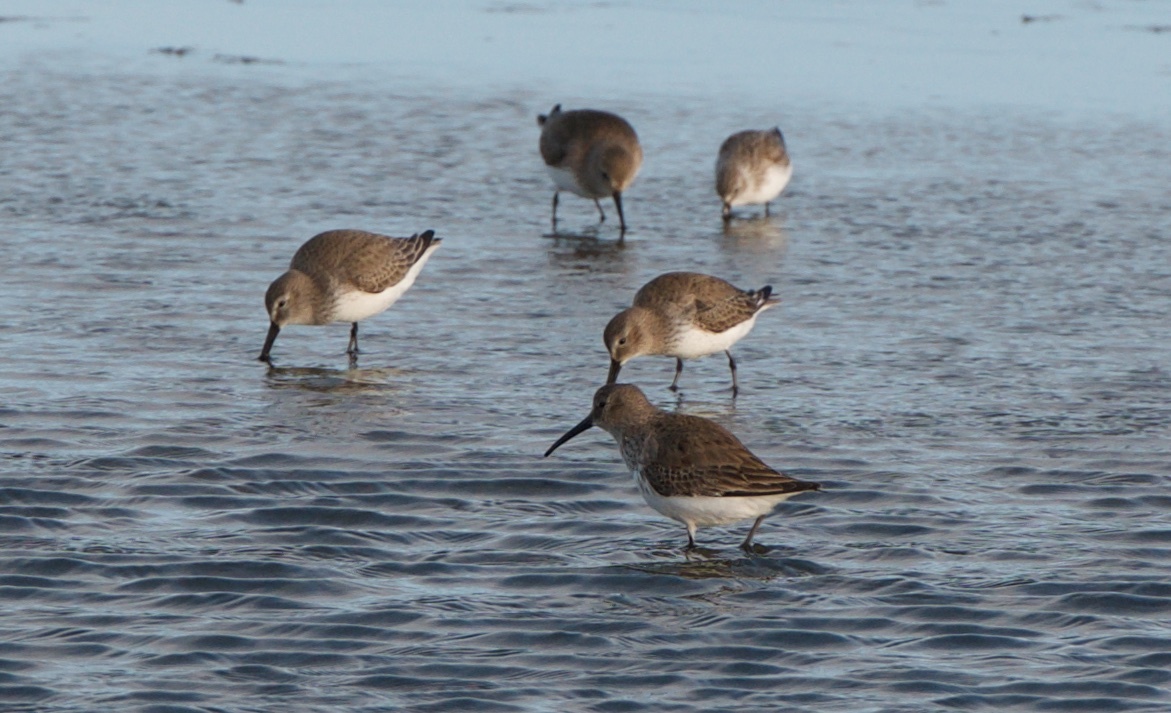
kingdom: Animalia
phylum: Chordata
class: Aves
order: Charadriiformes
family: Scolopacidae
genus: Calidris
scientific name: Calidris alpina
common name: Dunlin
